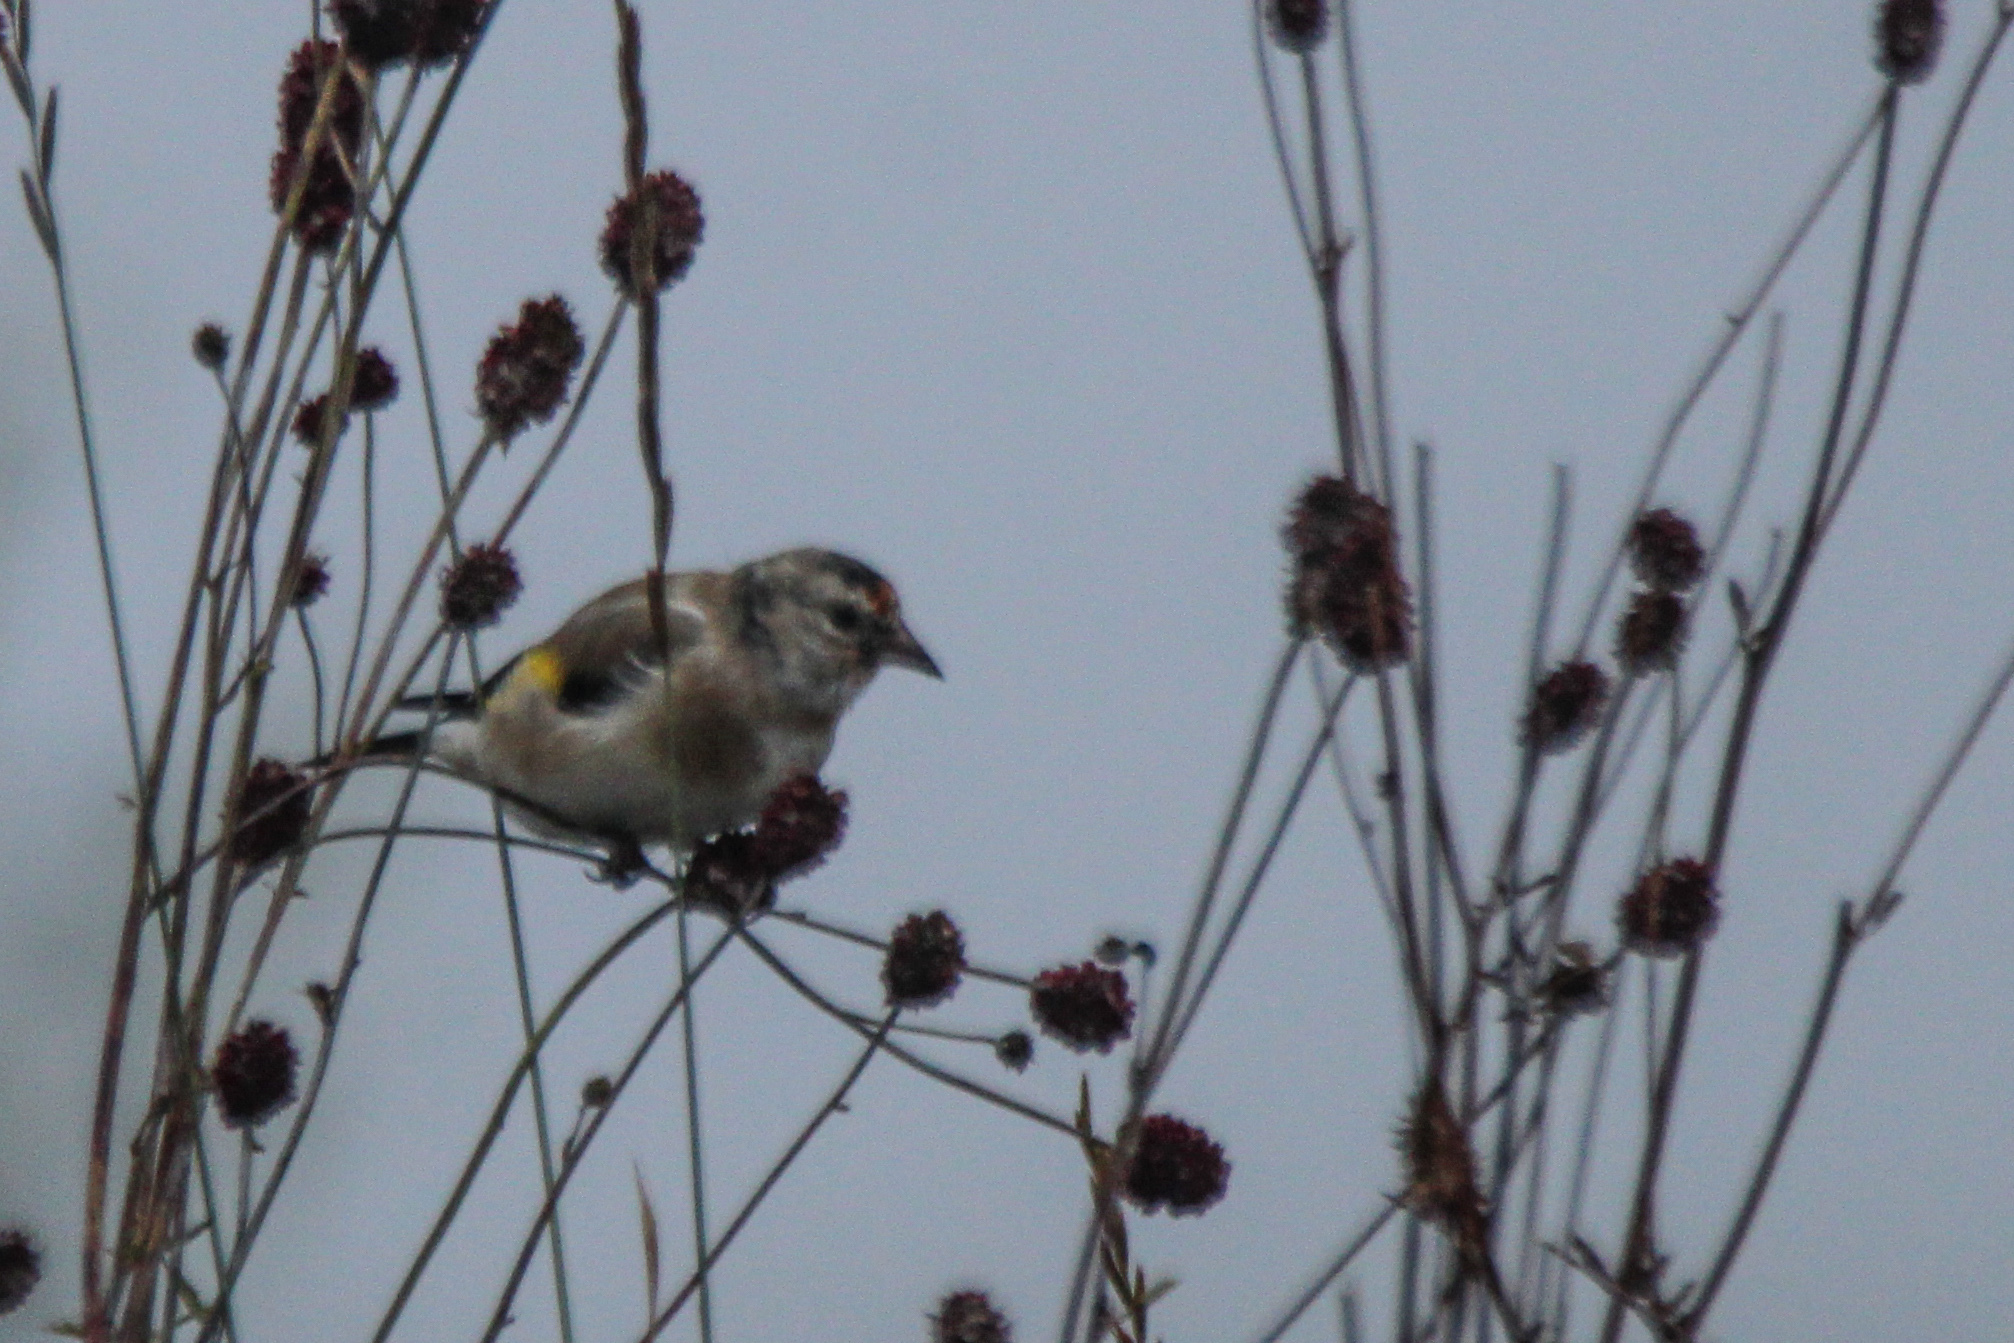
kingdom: Animalia
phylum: Chordata
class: Aves
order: Passeriformes
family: Fringillidae
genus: Carduelis
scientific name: Carduelis carduelis
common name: European goldfinch
